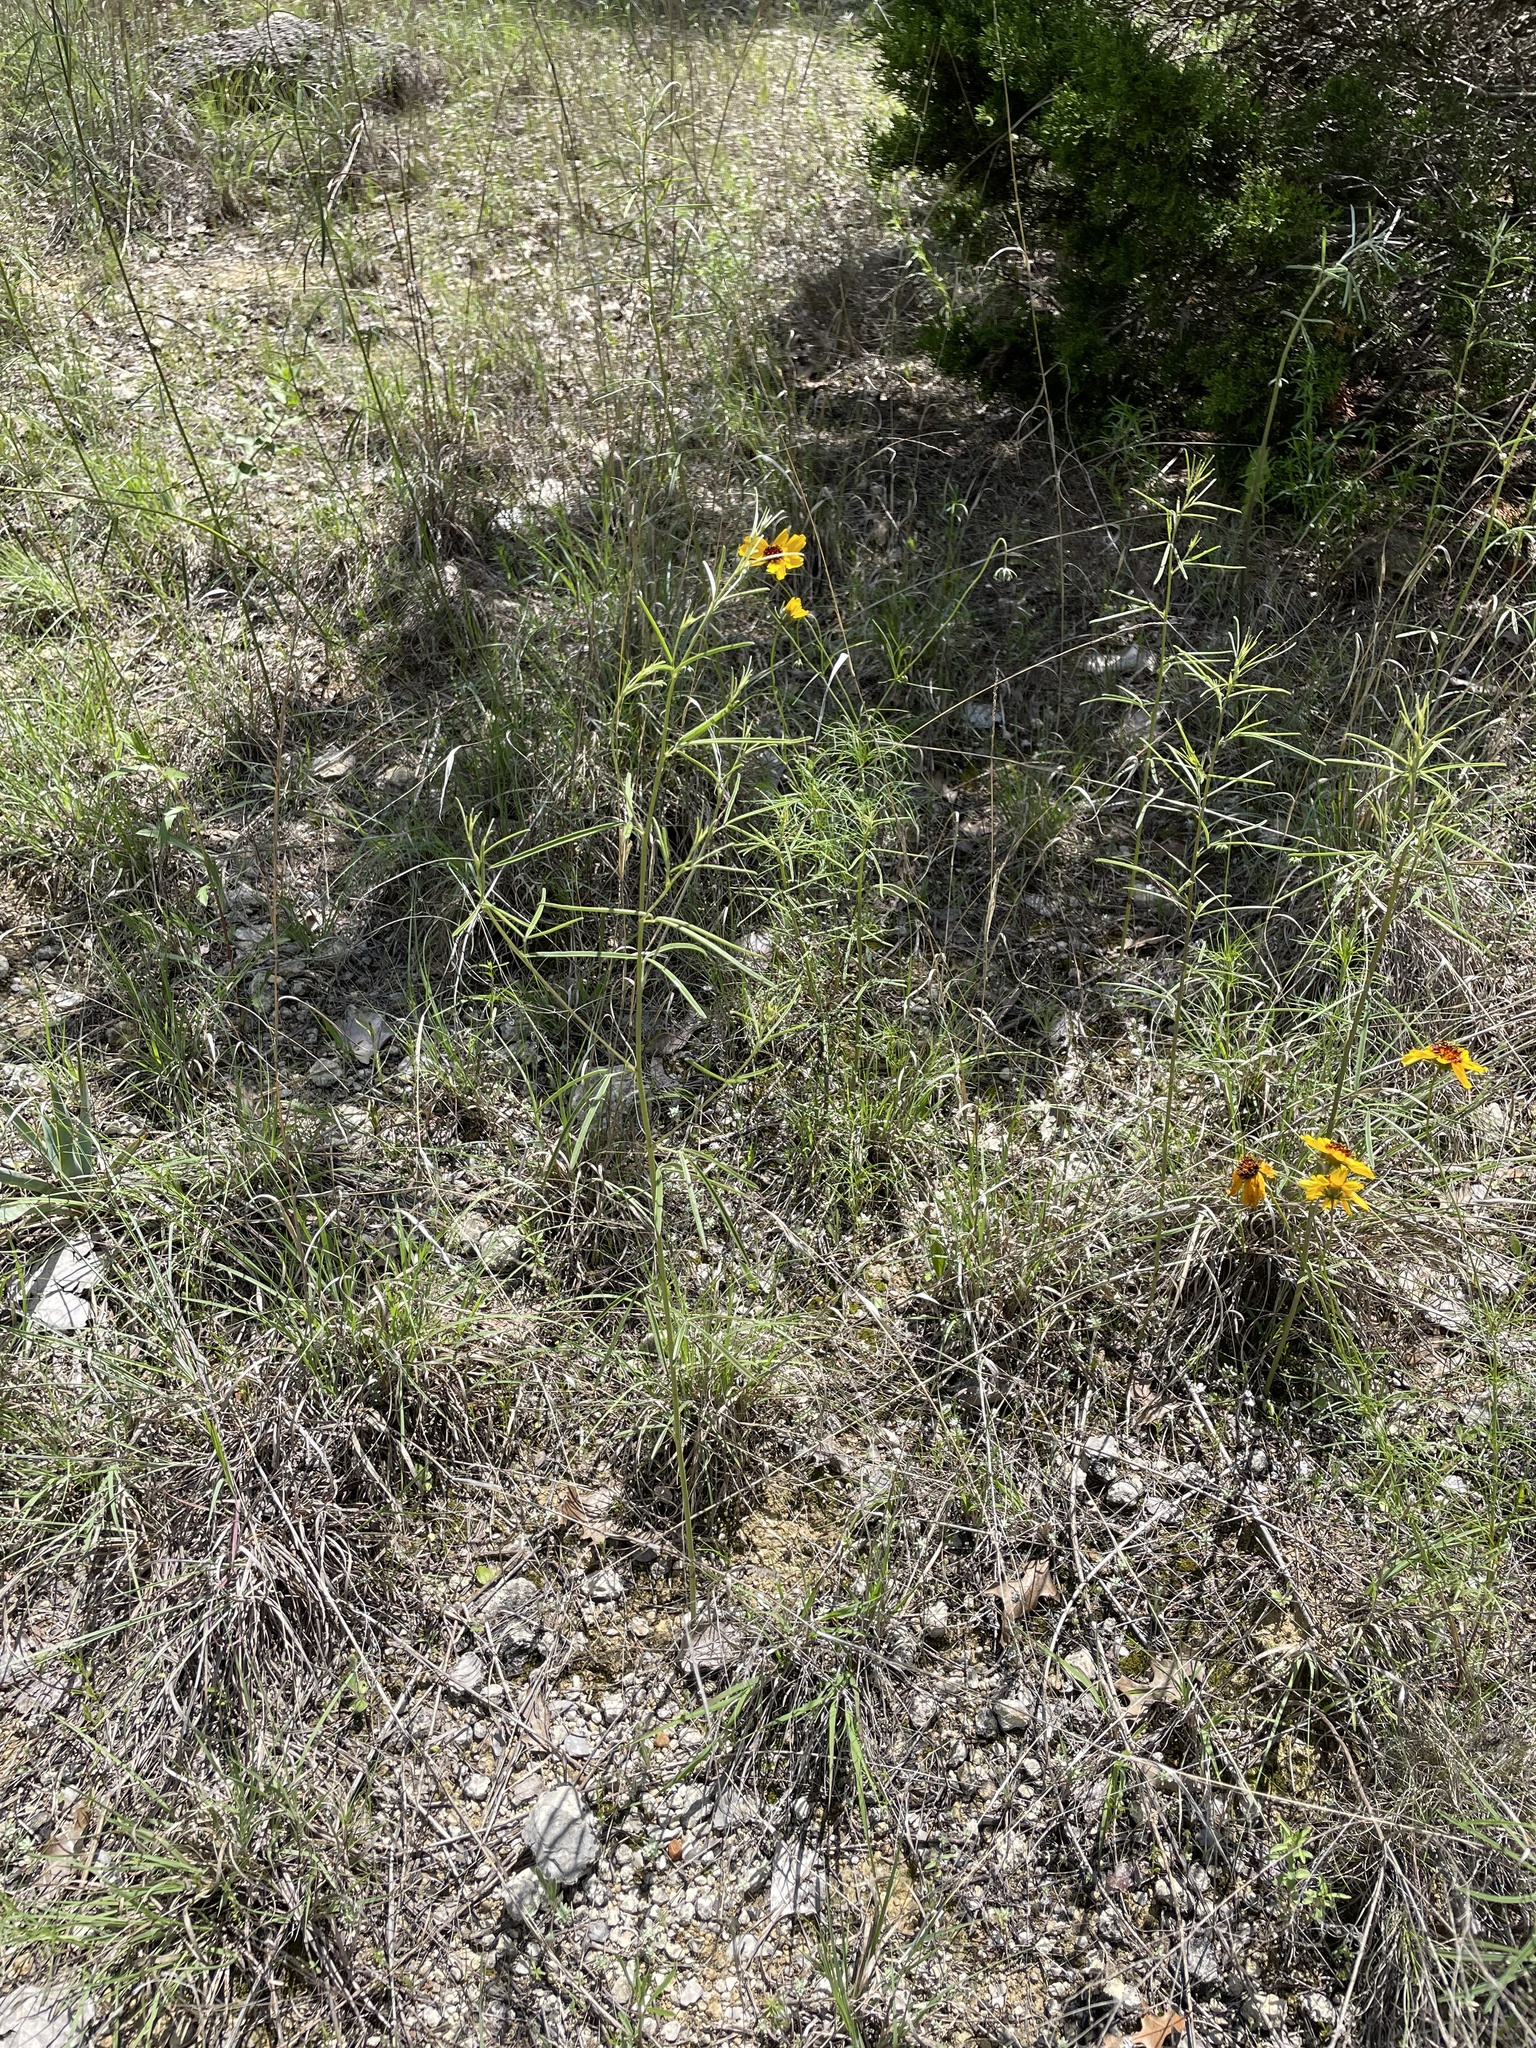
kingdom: Plantae
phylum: Tracheophyta
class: Magnoliopsida
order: Fabales
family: Fabaceae
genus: Pediomelum
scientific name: Pediomelum linearifolium
